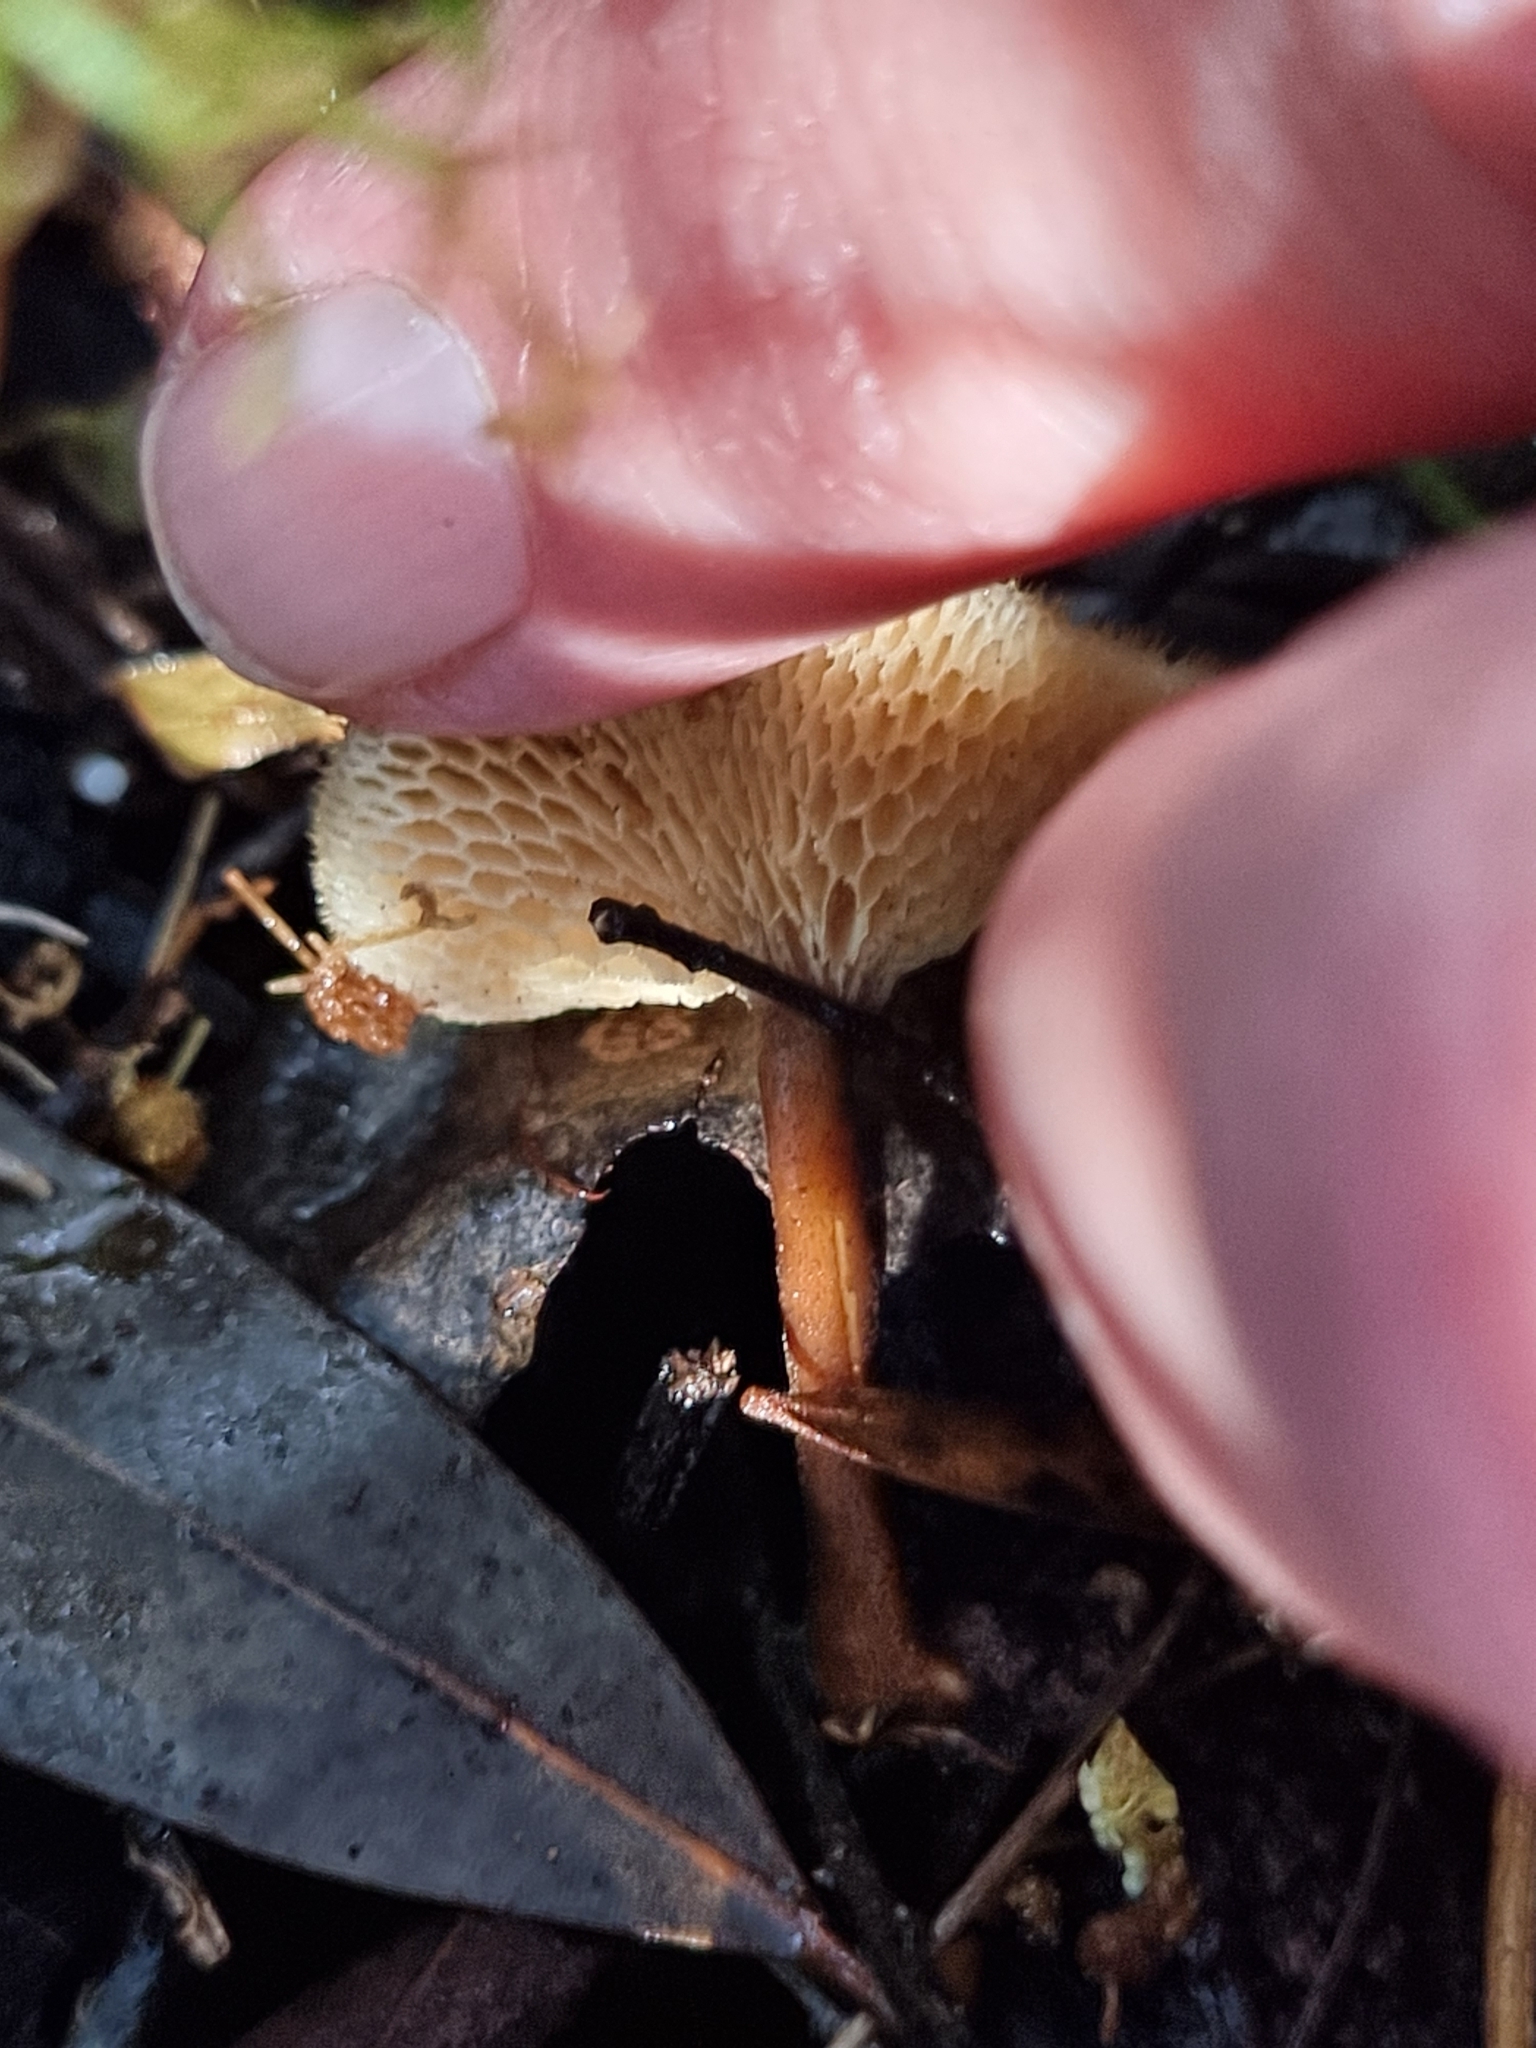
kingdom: Fungi
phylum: Basidiomycota
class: Agaricomycetes
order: Polyporales
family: Polyporaceae
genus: Lentinus
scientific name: Lentinus arcularius
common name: Spring polypore
